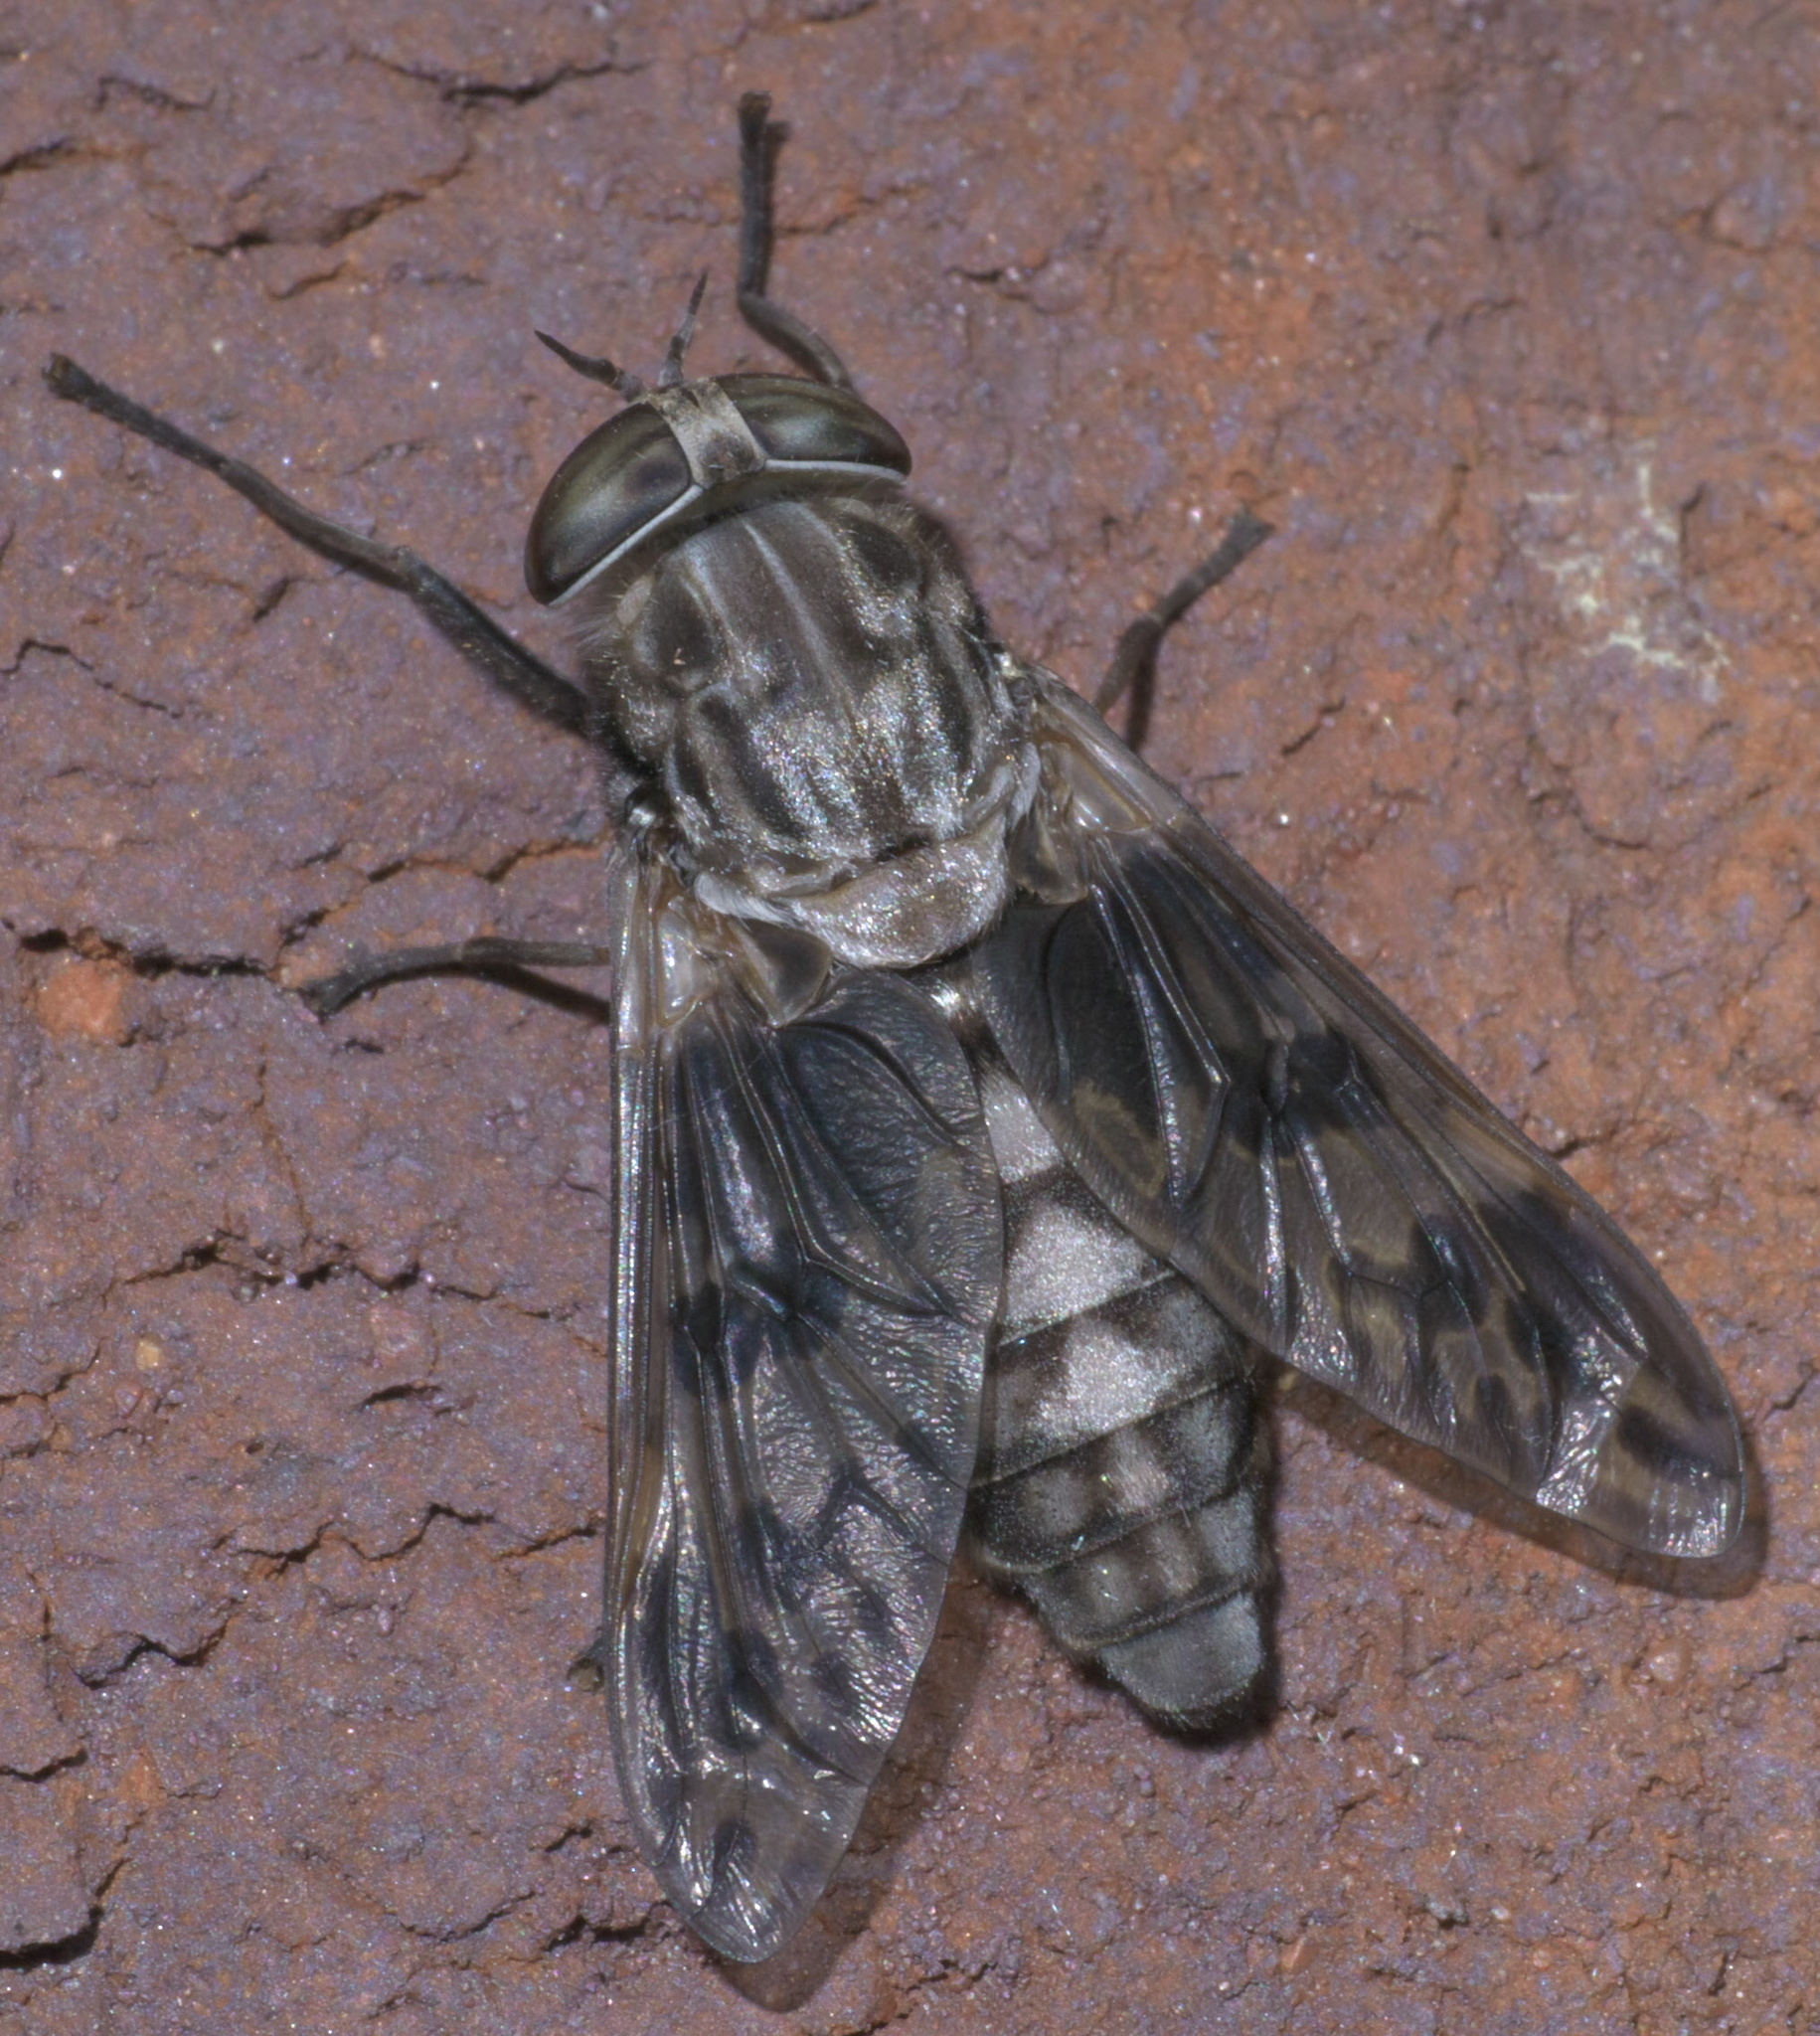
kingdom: Animalia
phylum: Arthropoda
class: Insecta
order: Diptera
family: Tabanidae
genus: Tabanus
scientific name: Tabanus venustus
